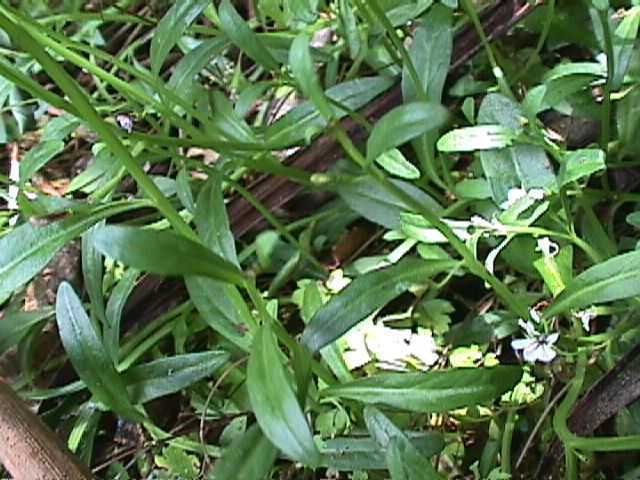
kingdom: Plantae
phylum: Tracheophyta
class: Magnoliopsida
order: Asterales
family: Campanulaceae
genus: Lobelia
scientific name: Lobelia anceps
